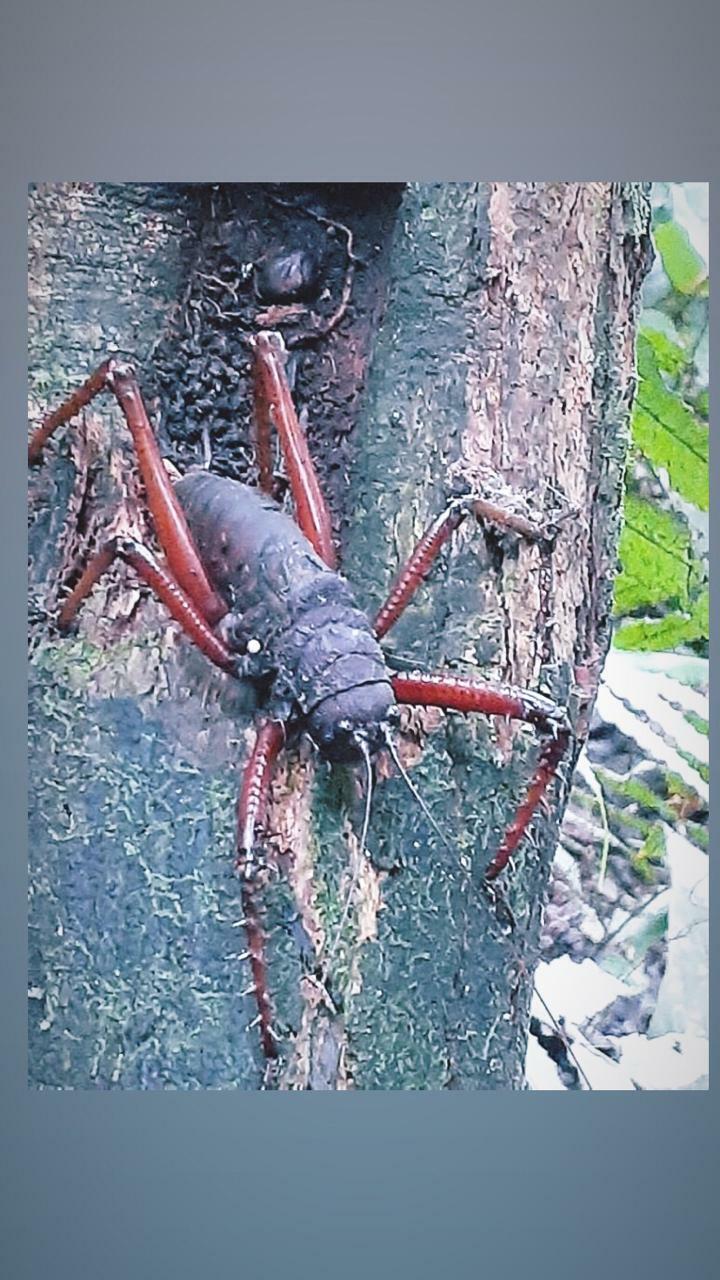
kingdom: Animalia
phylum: Arthropoda
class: Insecta
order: Orthoptera
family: Tettigoniidae
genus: Panoploscelis
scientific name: Panoploscelis specularis
